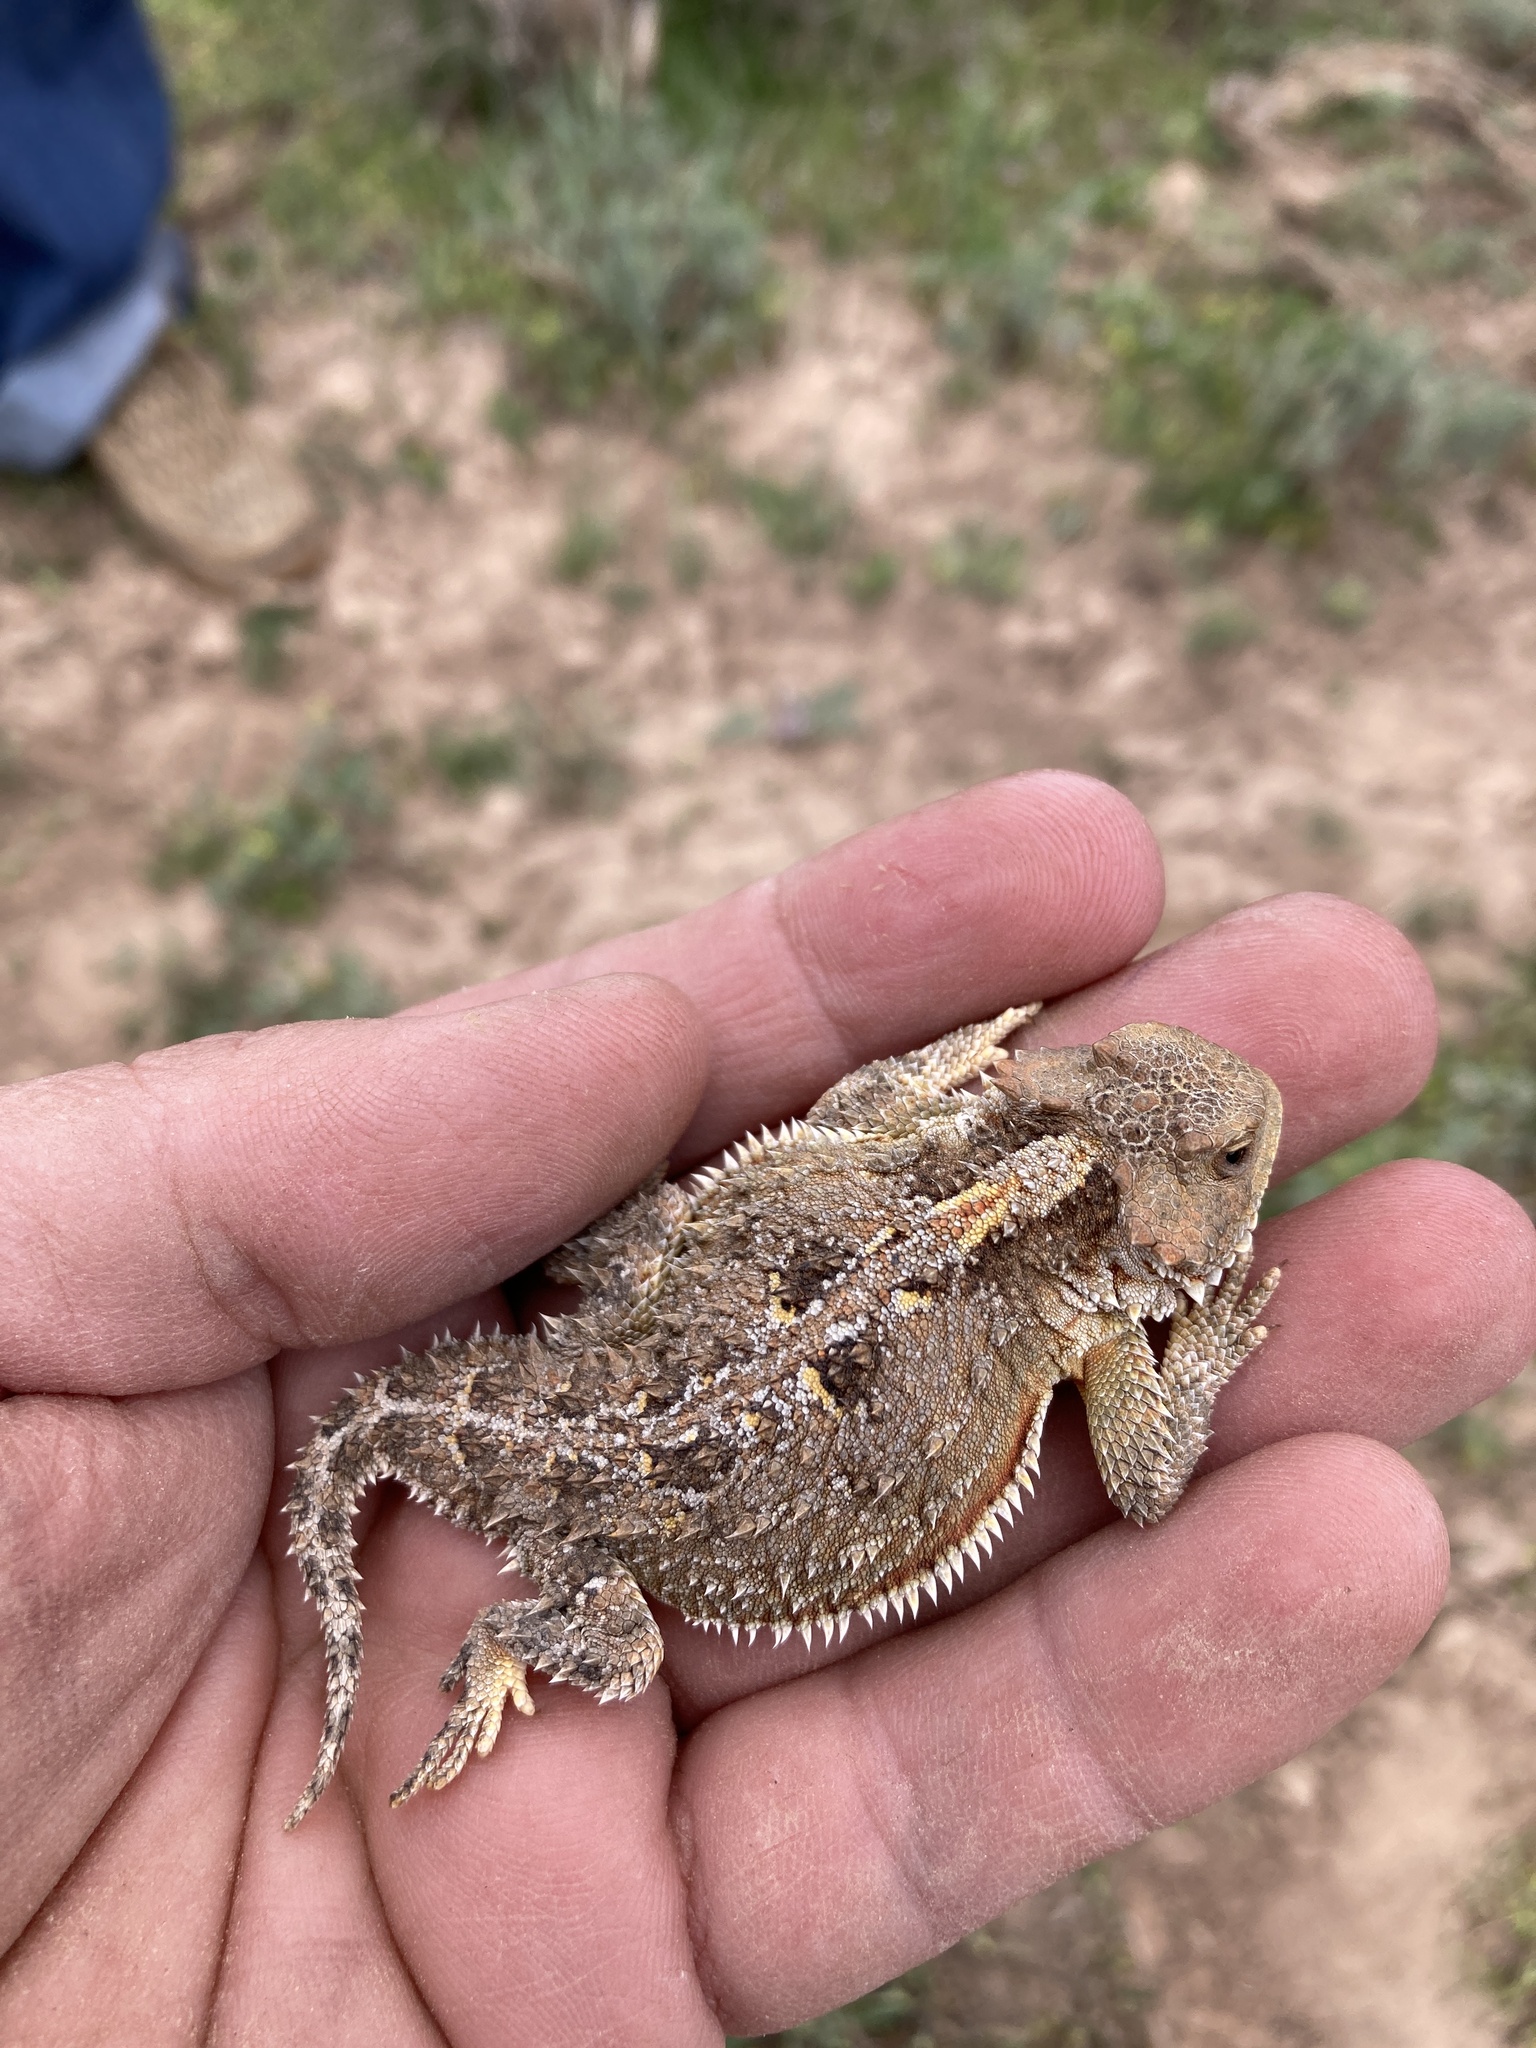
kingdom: Animalia
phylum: Chordata
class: Squamata
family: Phrynosomatidae
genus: Phrynosoma
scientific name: Phrynosoma hernandesi
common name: Greater short-horned lizard
